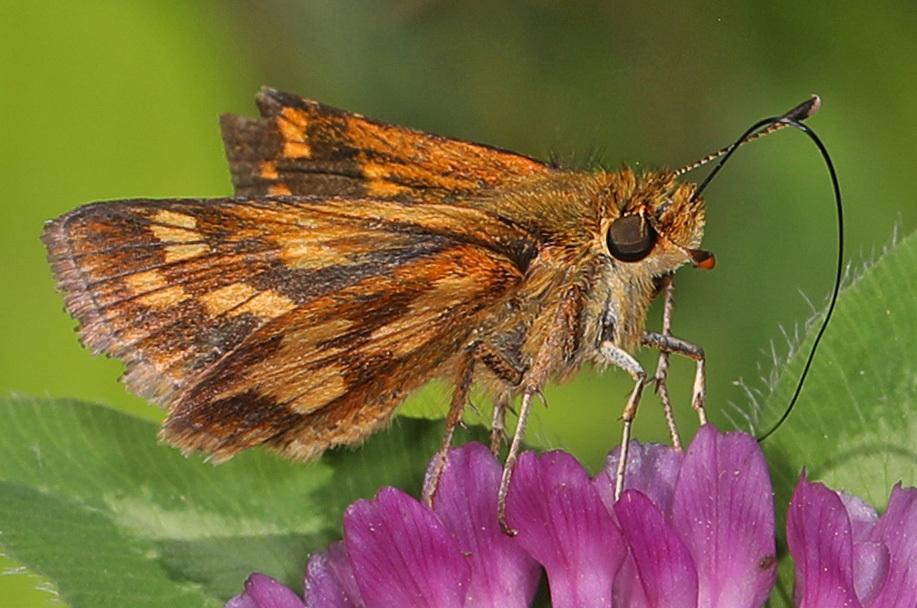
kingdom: Animalia
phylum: Arthropoda
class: Insecta
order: Lepidoptera
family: Hesperiidae
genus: Polites
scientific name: Polites coras
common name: Peck's skipper
